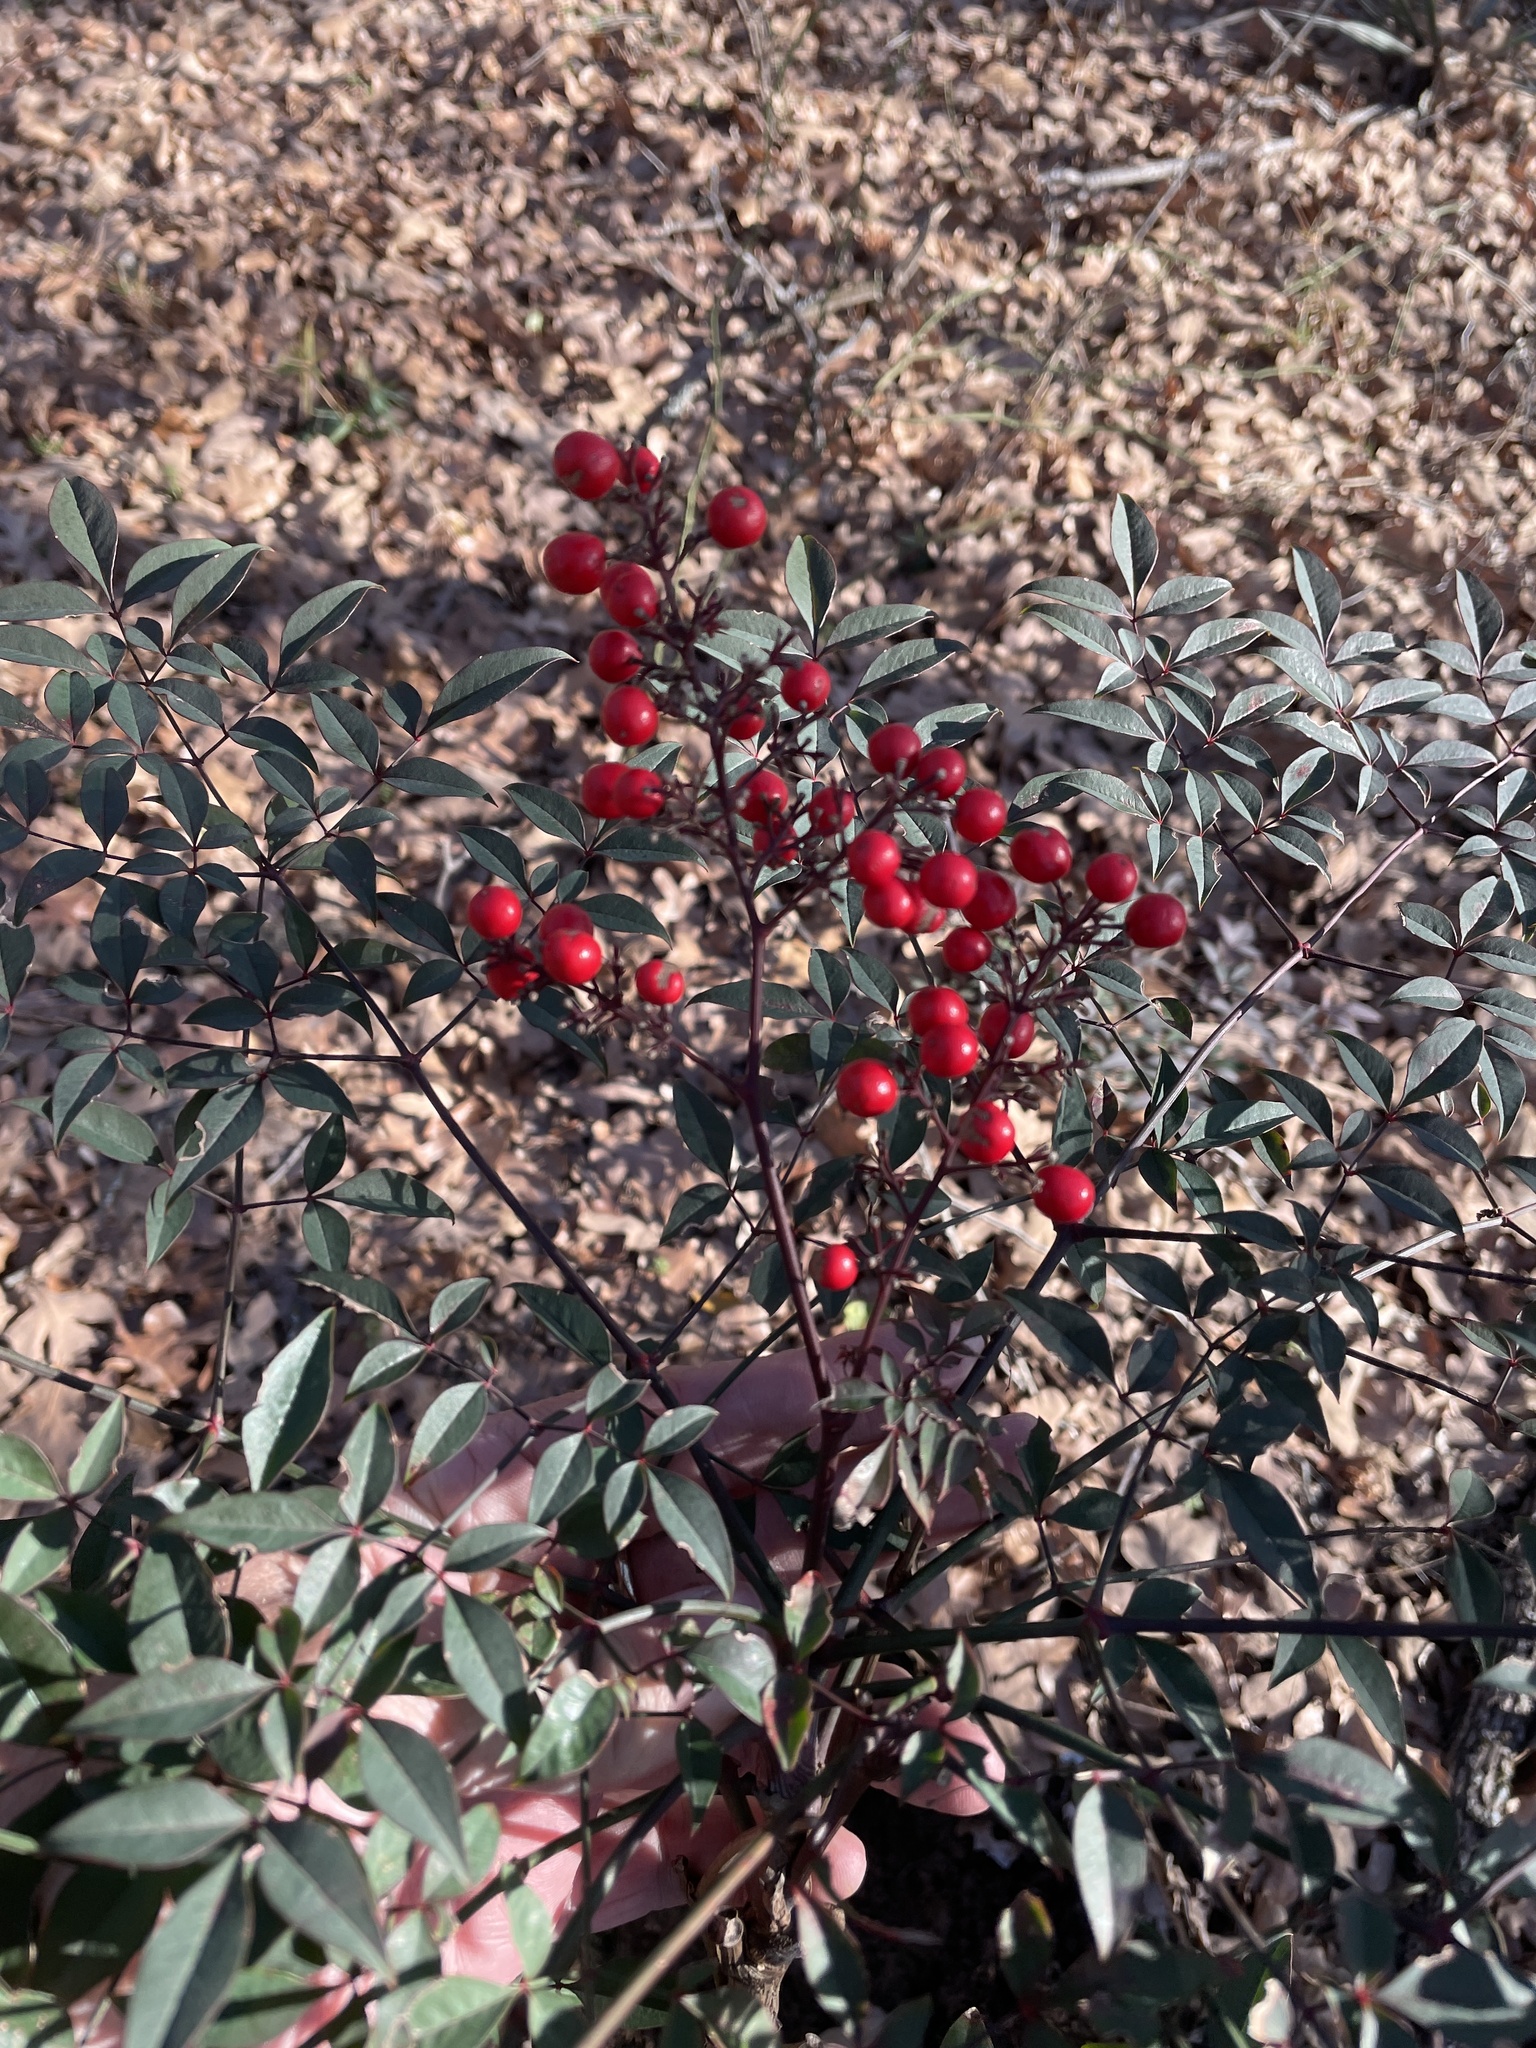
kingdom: Plantae
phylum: Tracheophyta
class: Magnoliopsida
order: Ranunculales
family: Berberidaceae
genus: Nandina
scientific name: Nandina domestica
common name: Sacred bamboo
